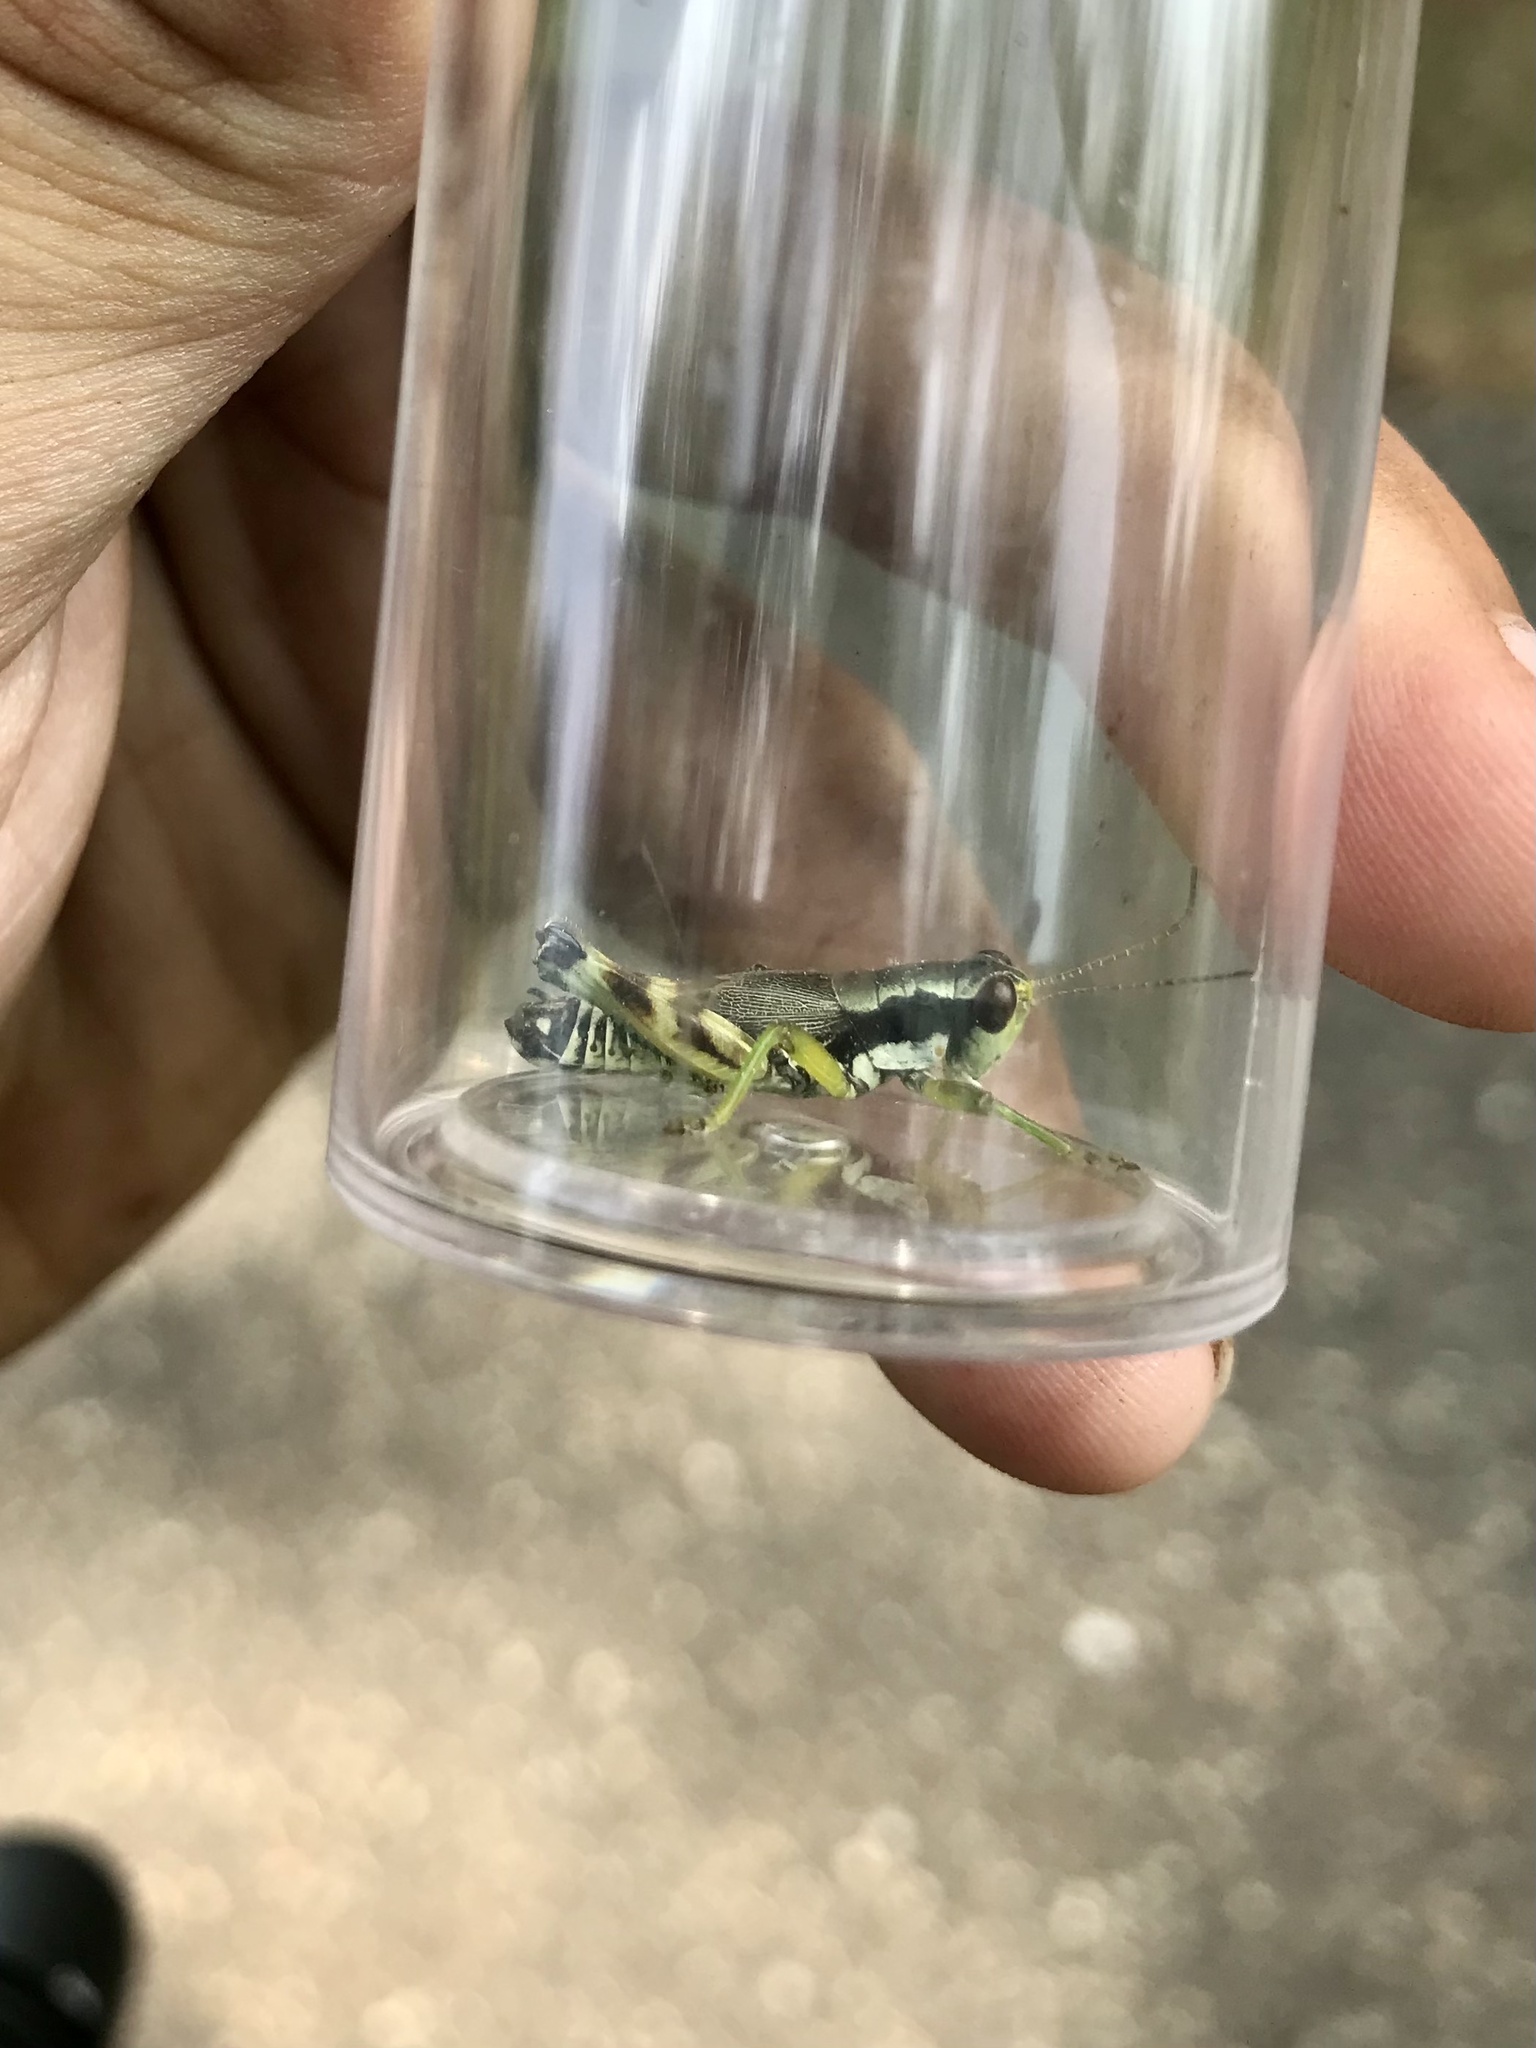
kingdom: Animalia
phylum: Arthropoda
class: Insecta
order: Orthoptera
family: Acrididae
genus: Melanoplus
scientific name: Melanoplus viridipes
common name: Green-legged locust
